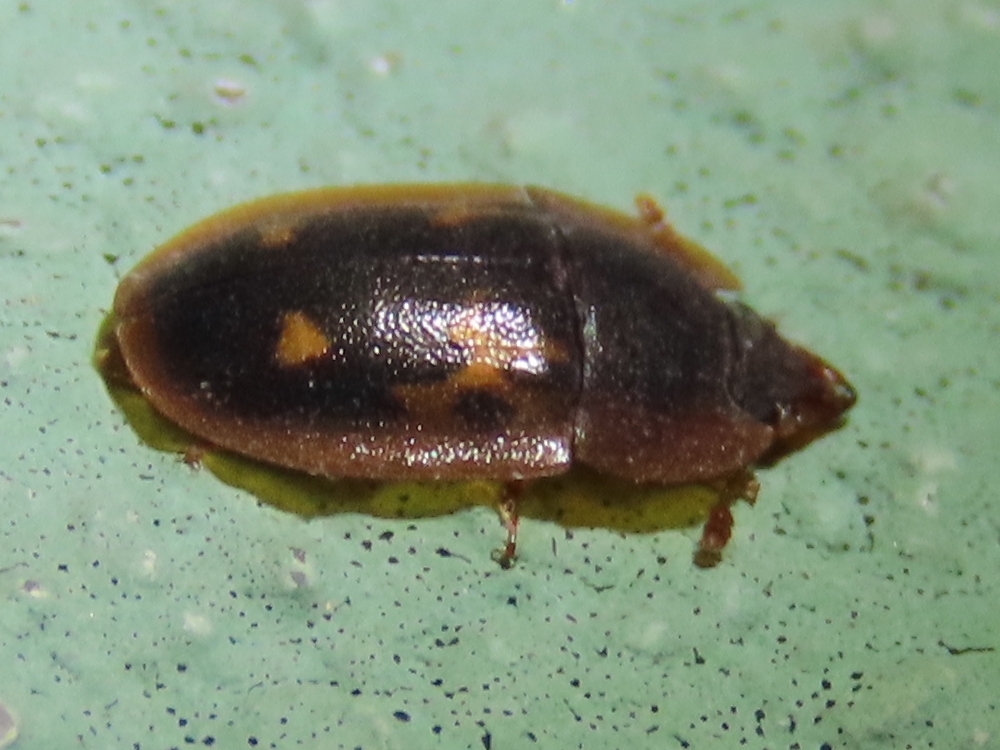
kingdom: Animalia
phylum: Arthropoda
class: Insecta
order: Coleoptera
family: Nitidulidae
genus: Prometopia
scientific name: Prometopia sexmaculata
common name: Six-spotted sap-feeding beetle
